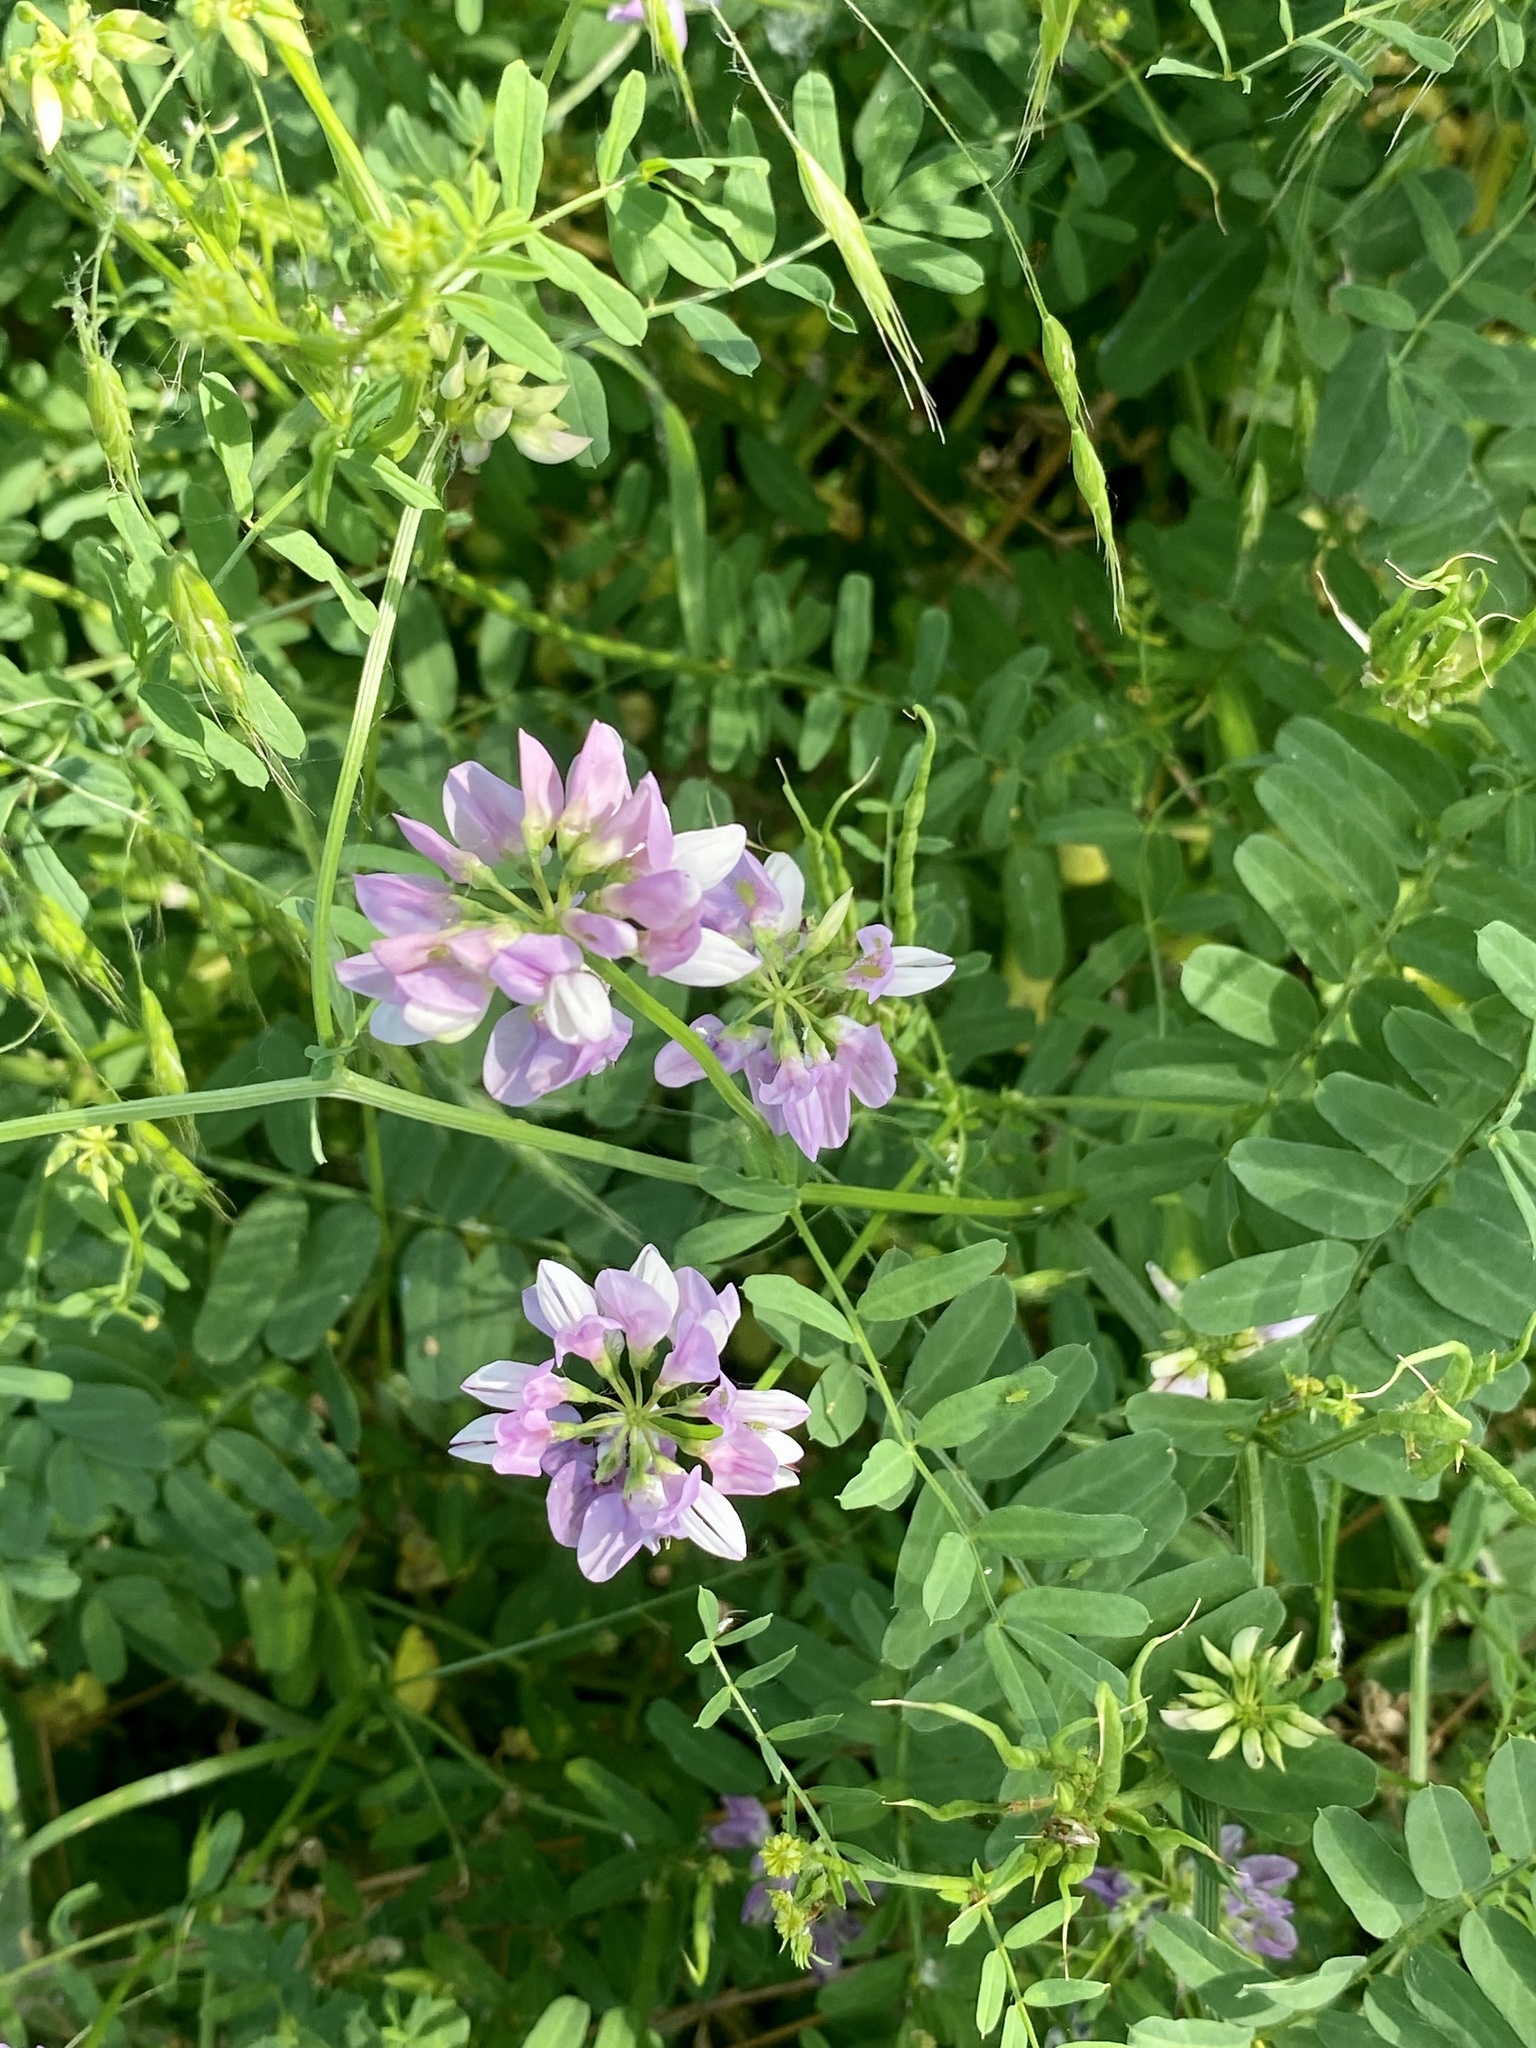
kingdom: Plantae
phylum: Tracheophyta
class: Magnoliopsida
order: Fabales
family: Fabaceae
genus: Coronilla
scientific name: Coronilla varia
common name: Crownvetch
